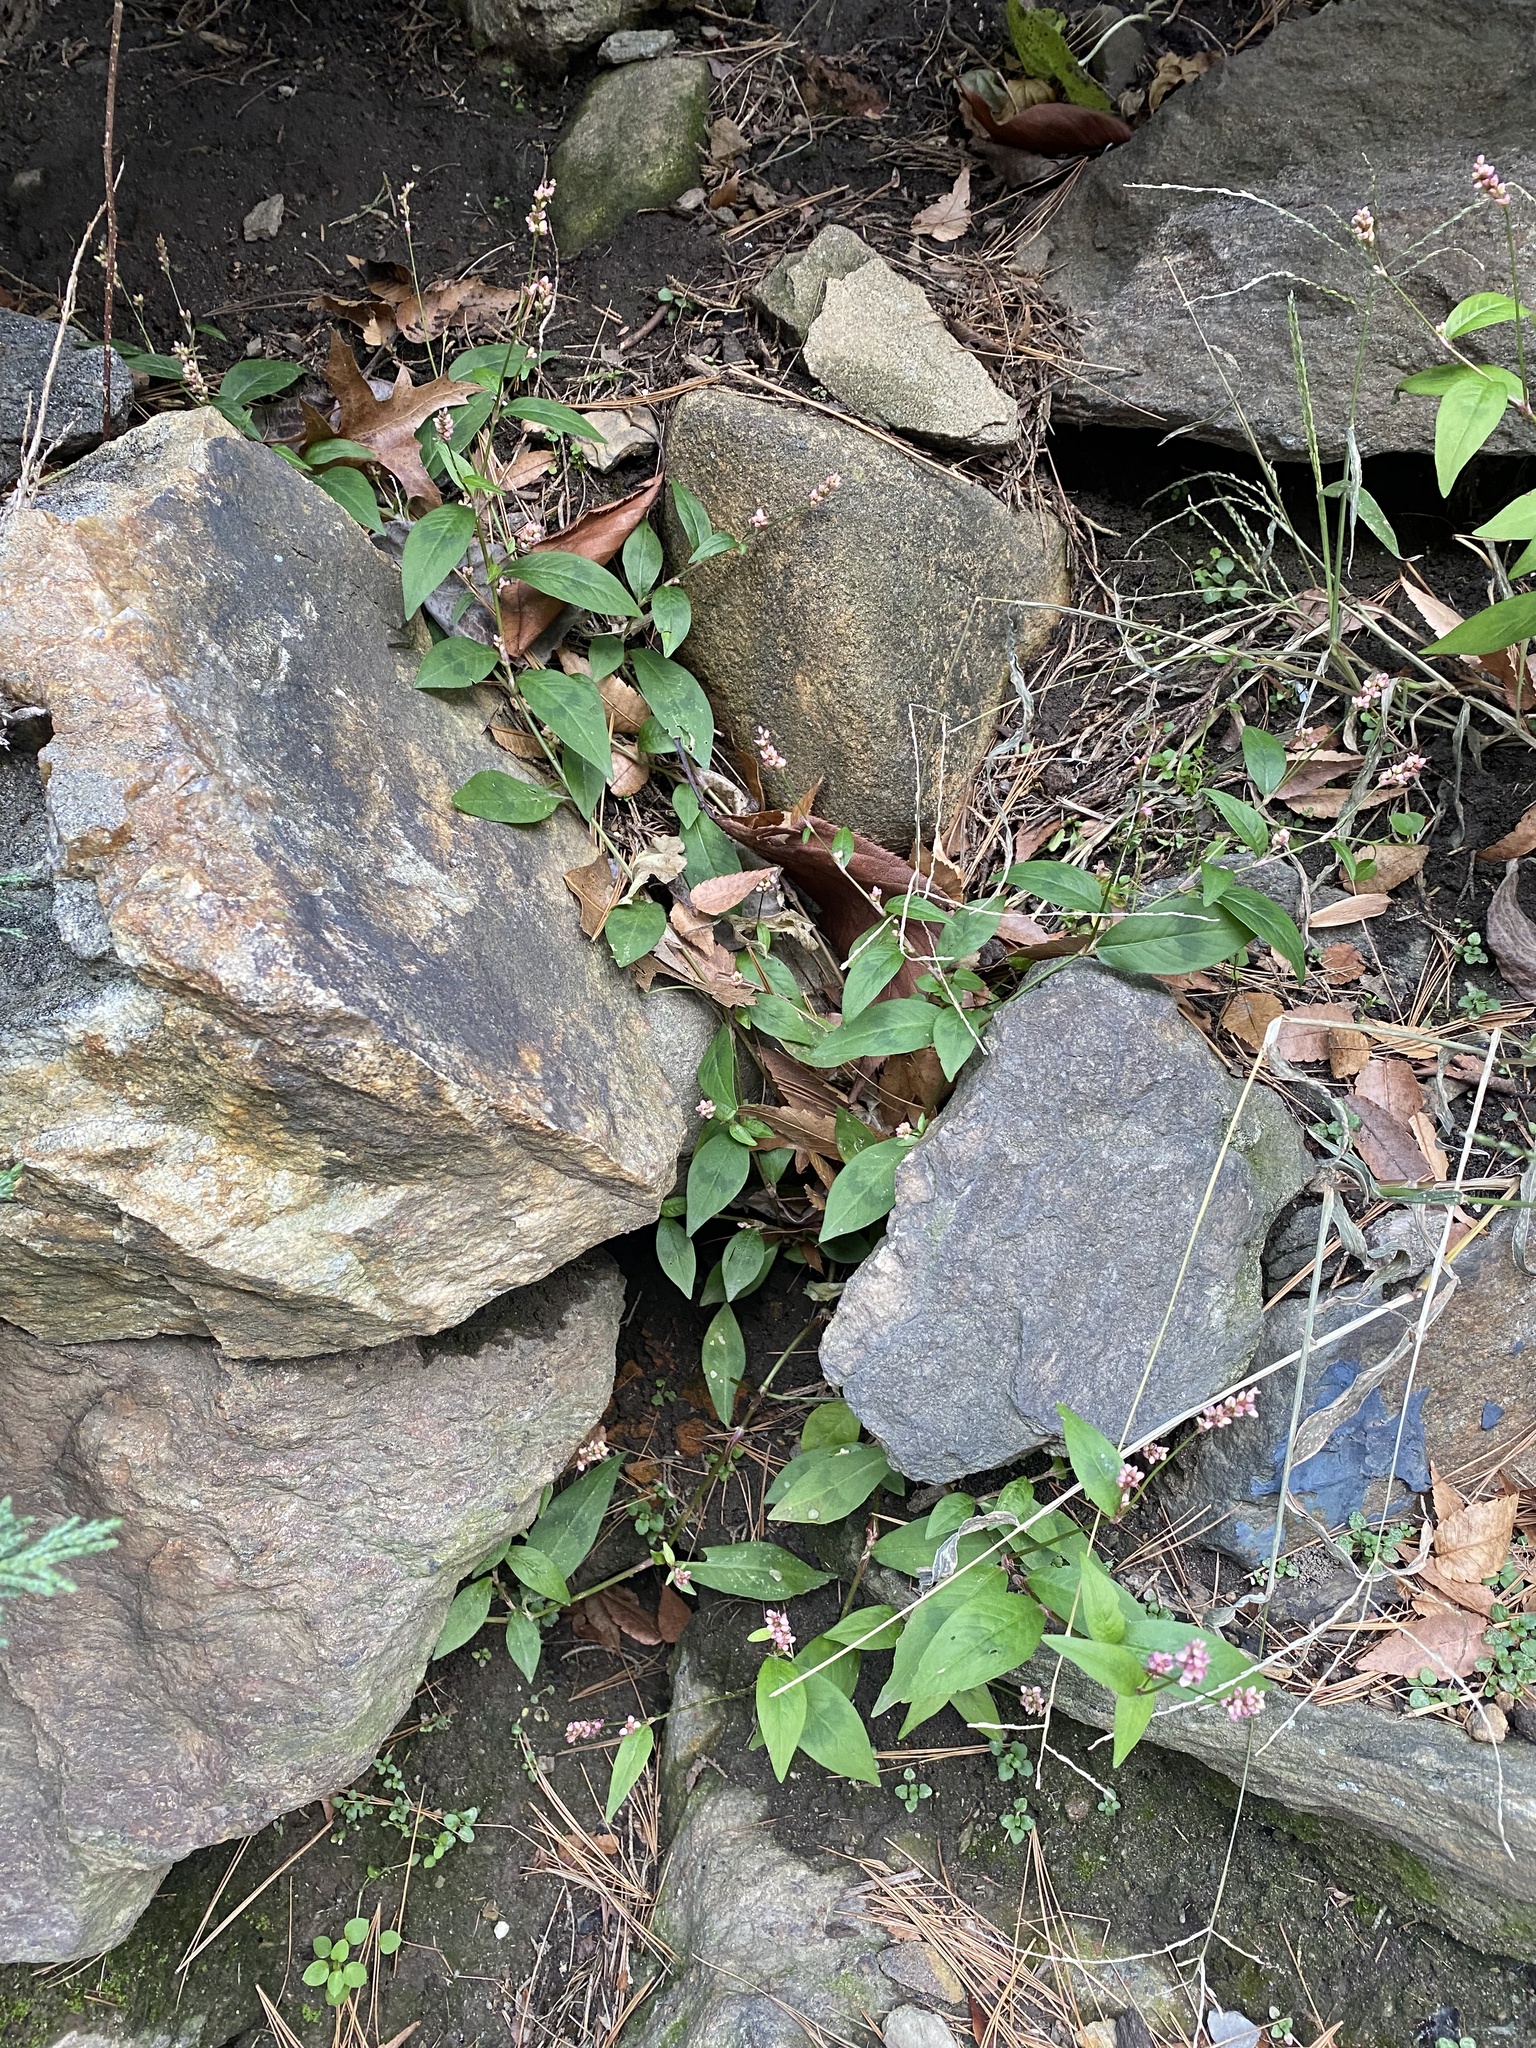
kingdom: Plantae
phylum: Tracheophyta
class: Magnoliopsida
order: Caryophyllales
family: Polygonaceae
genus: Persicaria
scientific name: Persicaria longiseta
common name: Bristly lady's-thumb
